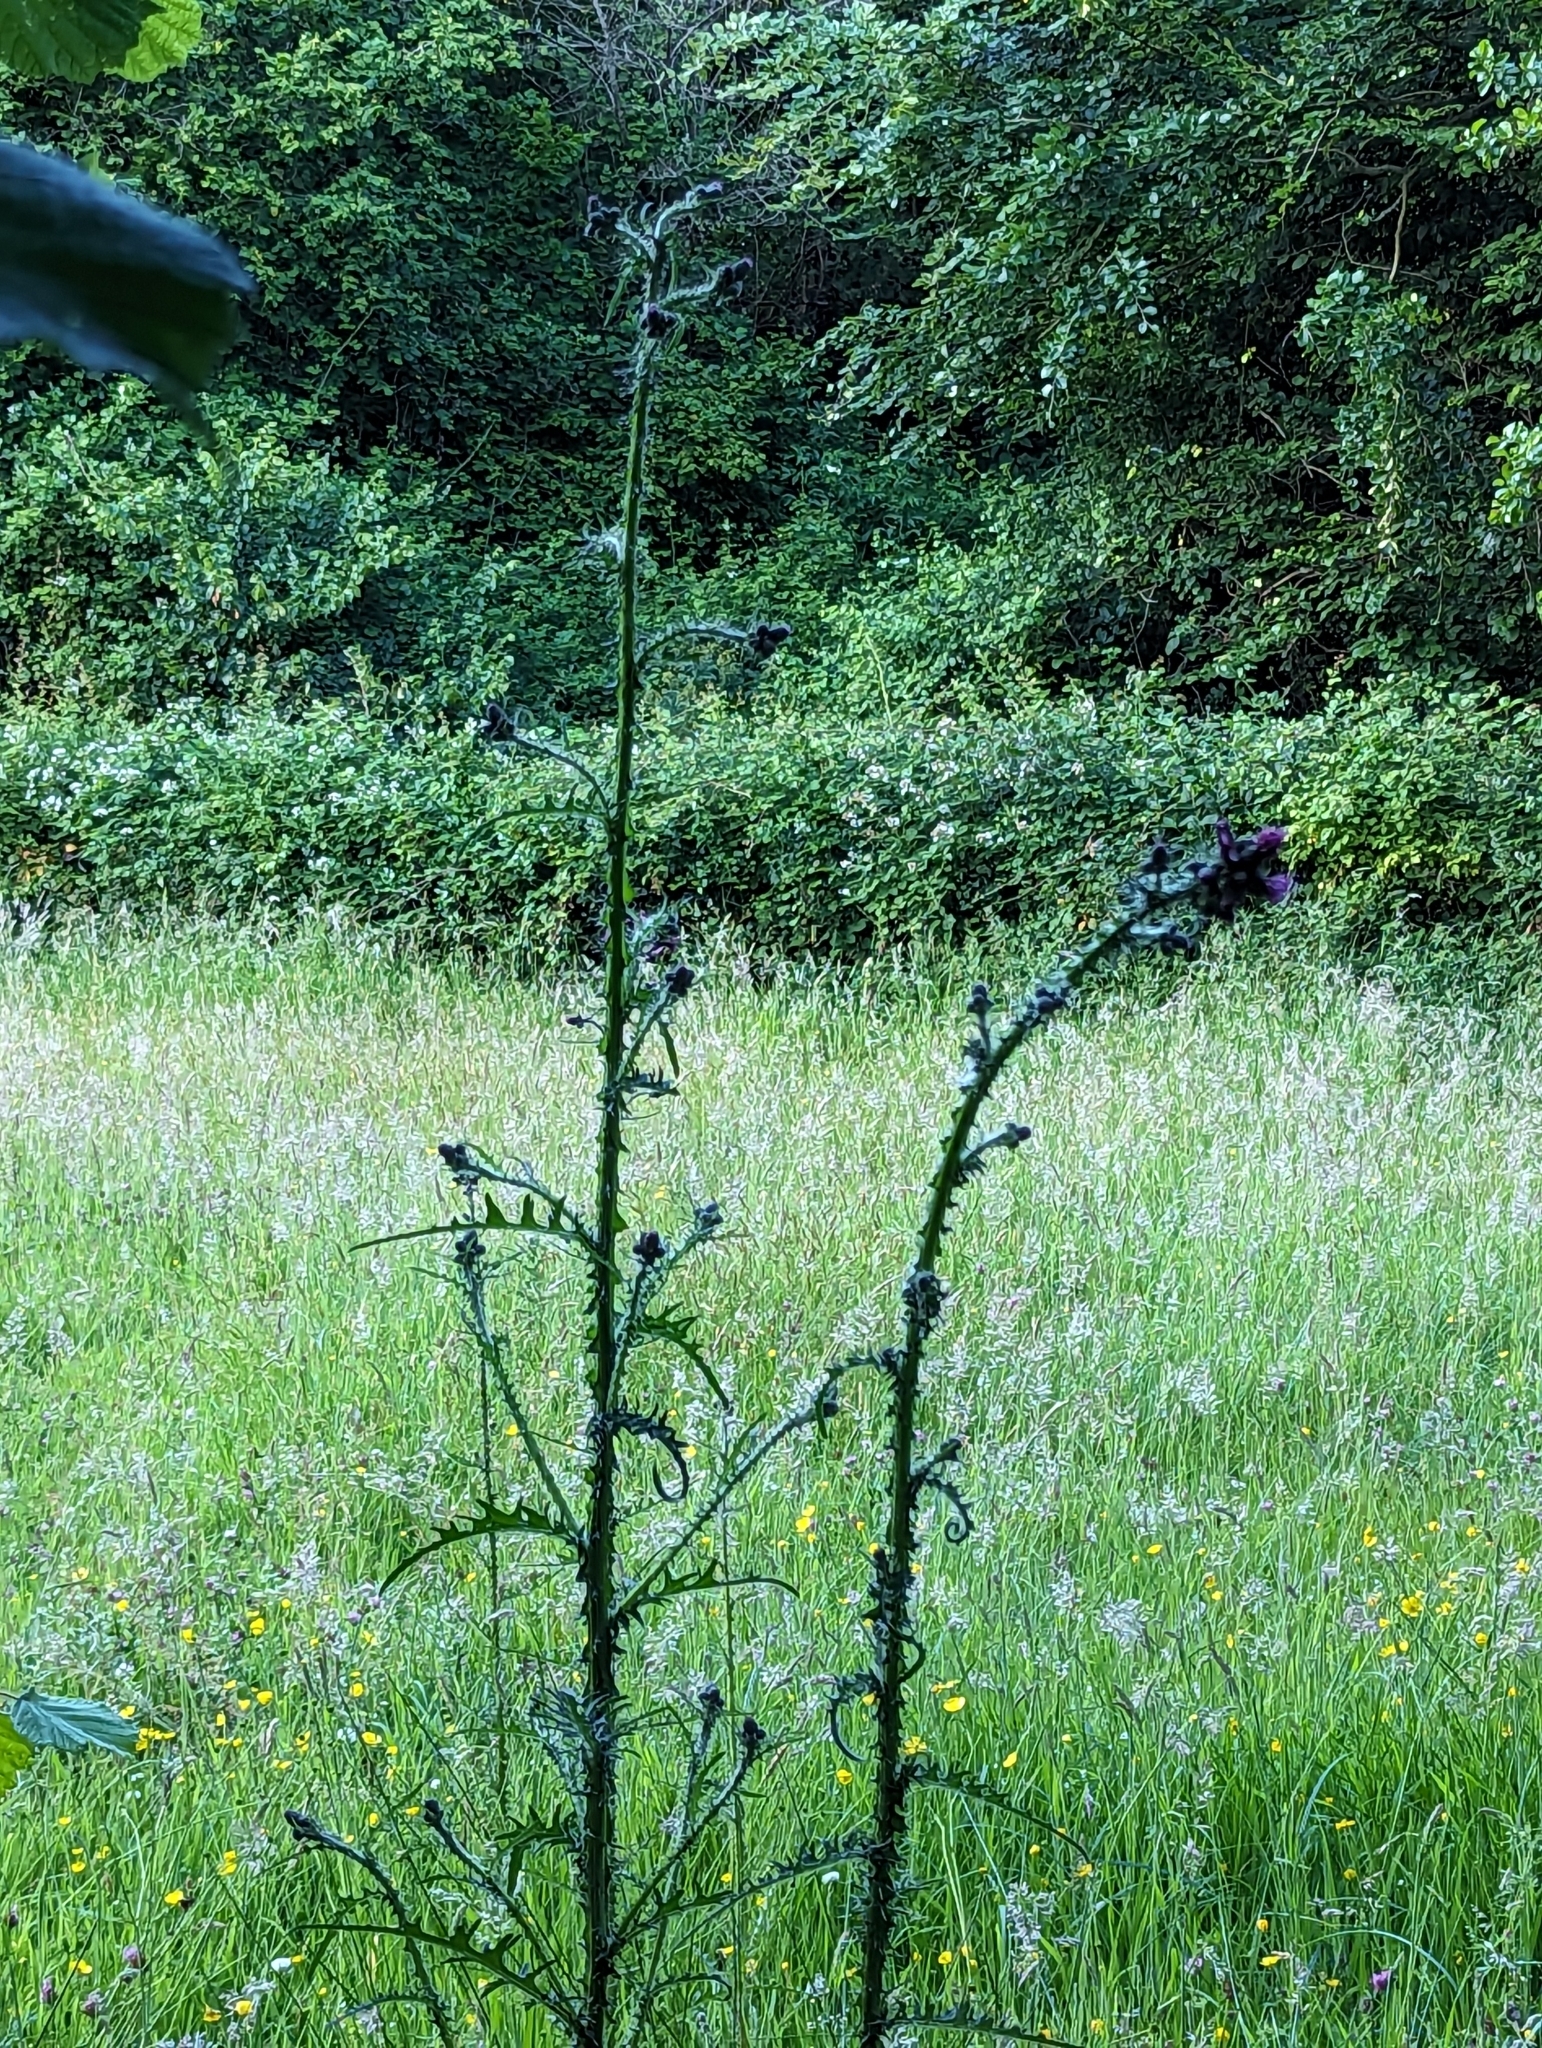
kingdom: Plantae
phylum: Tracheophyta
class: Magnoliopsida
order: Asterales
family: Asteraceae
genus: Cirsium
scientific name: Cirsium palustre
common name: Marsh thistle
